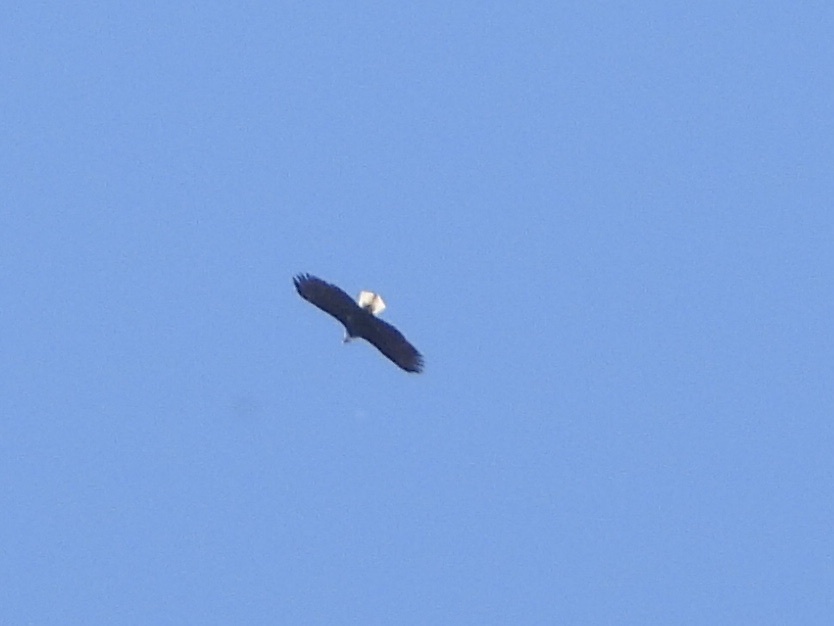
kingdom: Animalia
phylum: Chordata
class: Aves
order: Accipitriformes
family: Accipitridae
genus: Haliaeetus
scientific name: Haliaeetus leucocephalus
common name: Bald eagle
